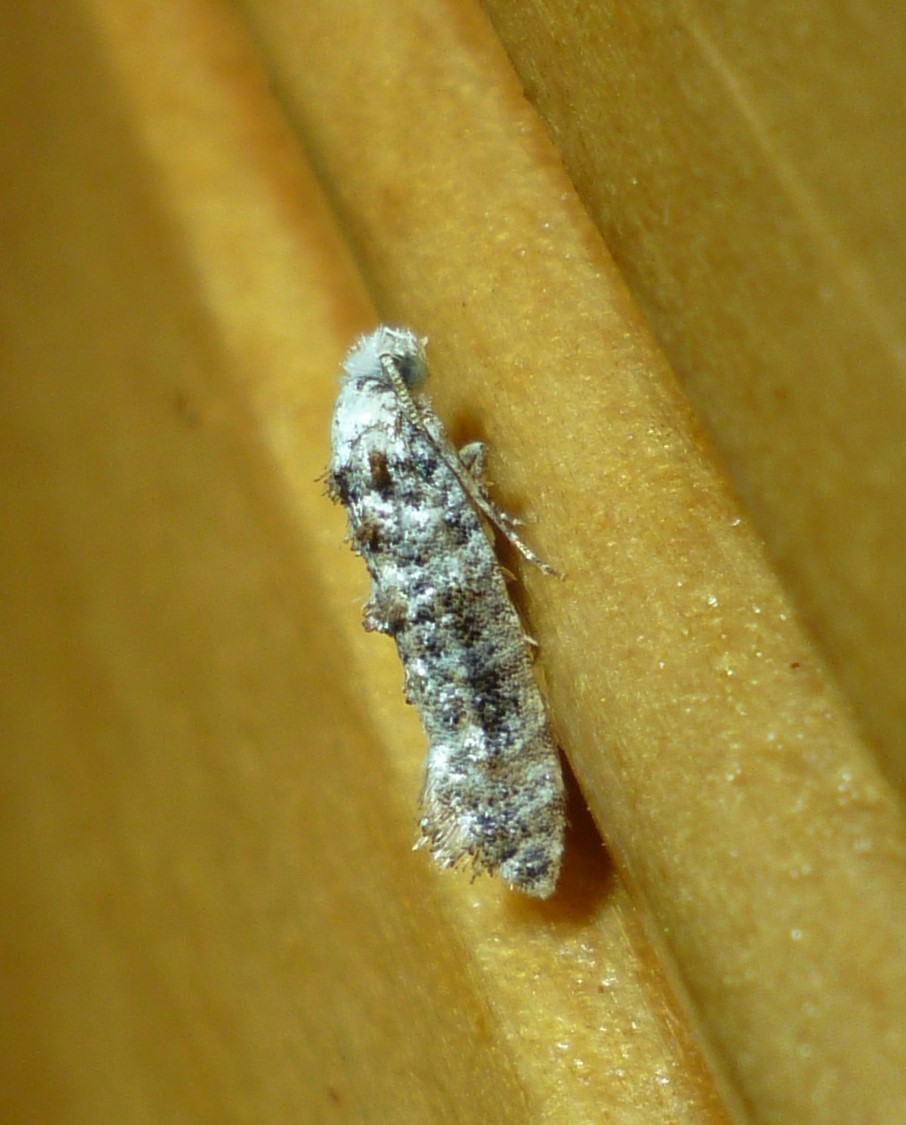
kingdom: Animalia
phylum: Arthropoda
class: Insecta
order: Lepidoptera
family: Tineidae
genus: Xylesthia
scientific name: Xylesthia pruniramiella
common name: Clemens' bark moth
